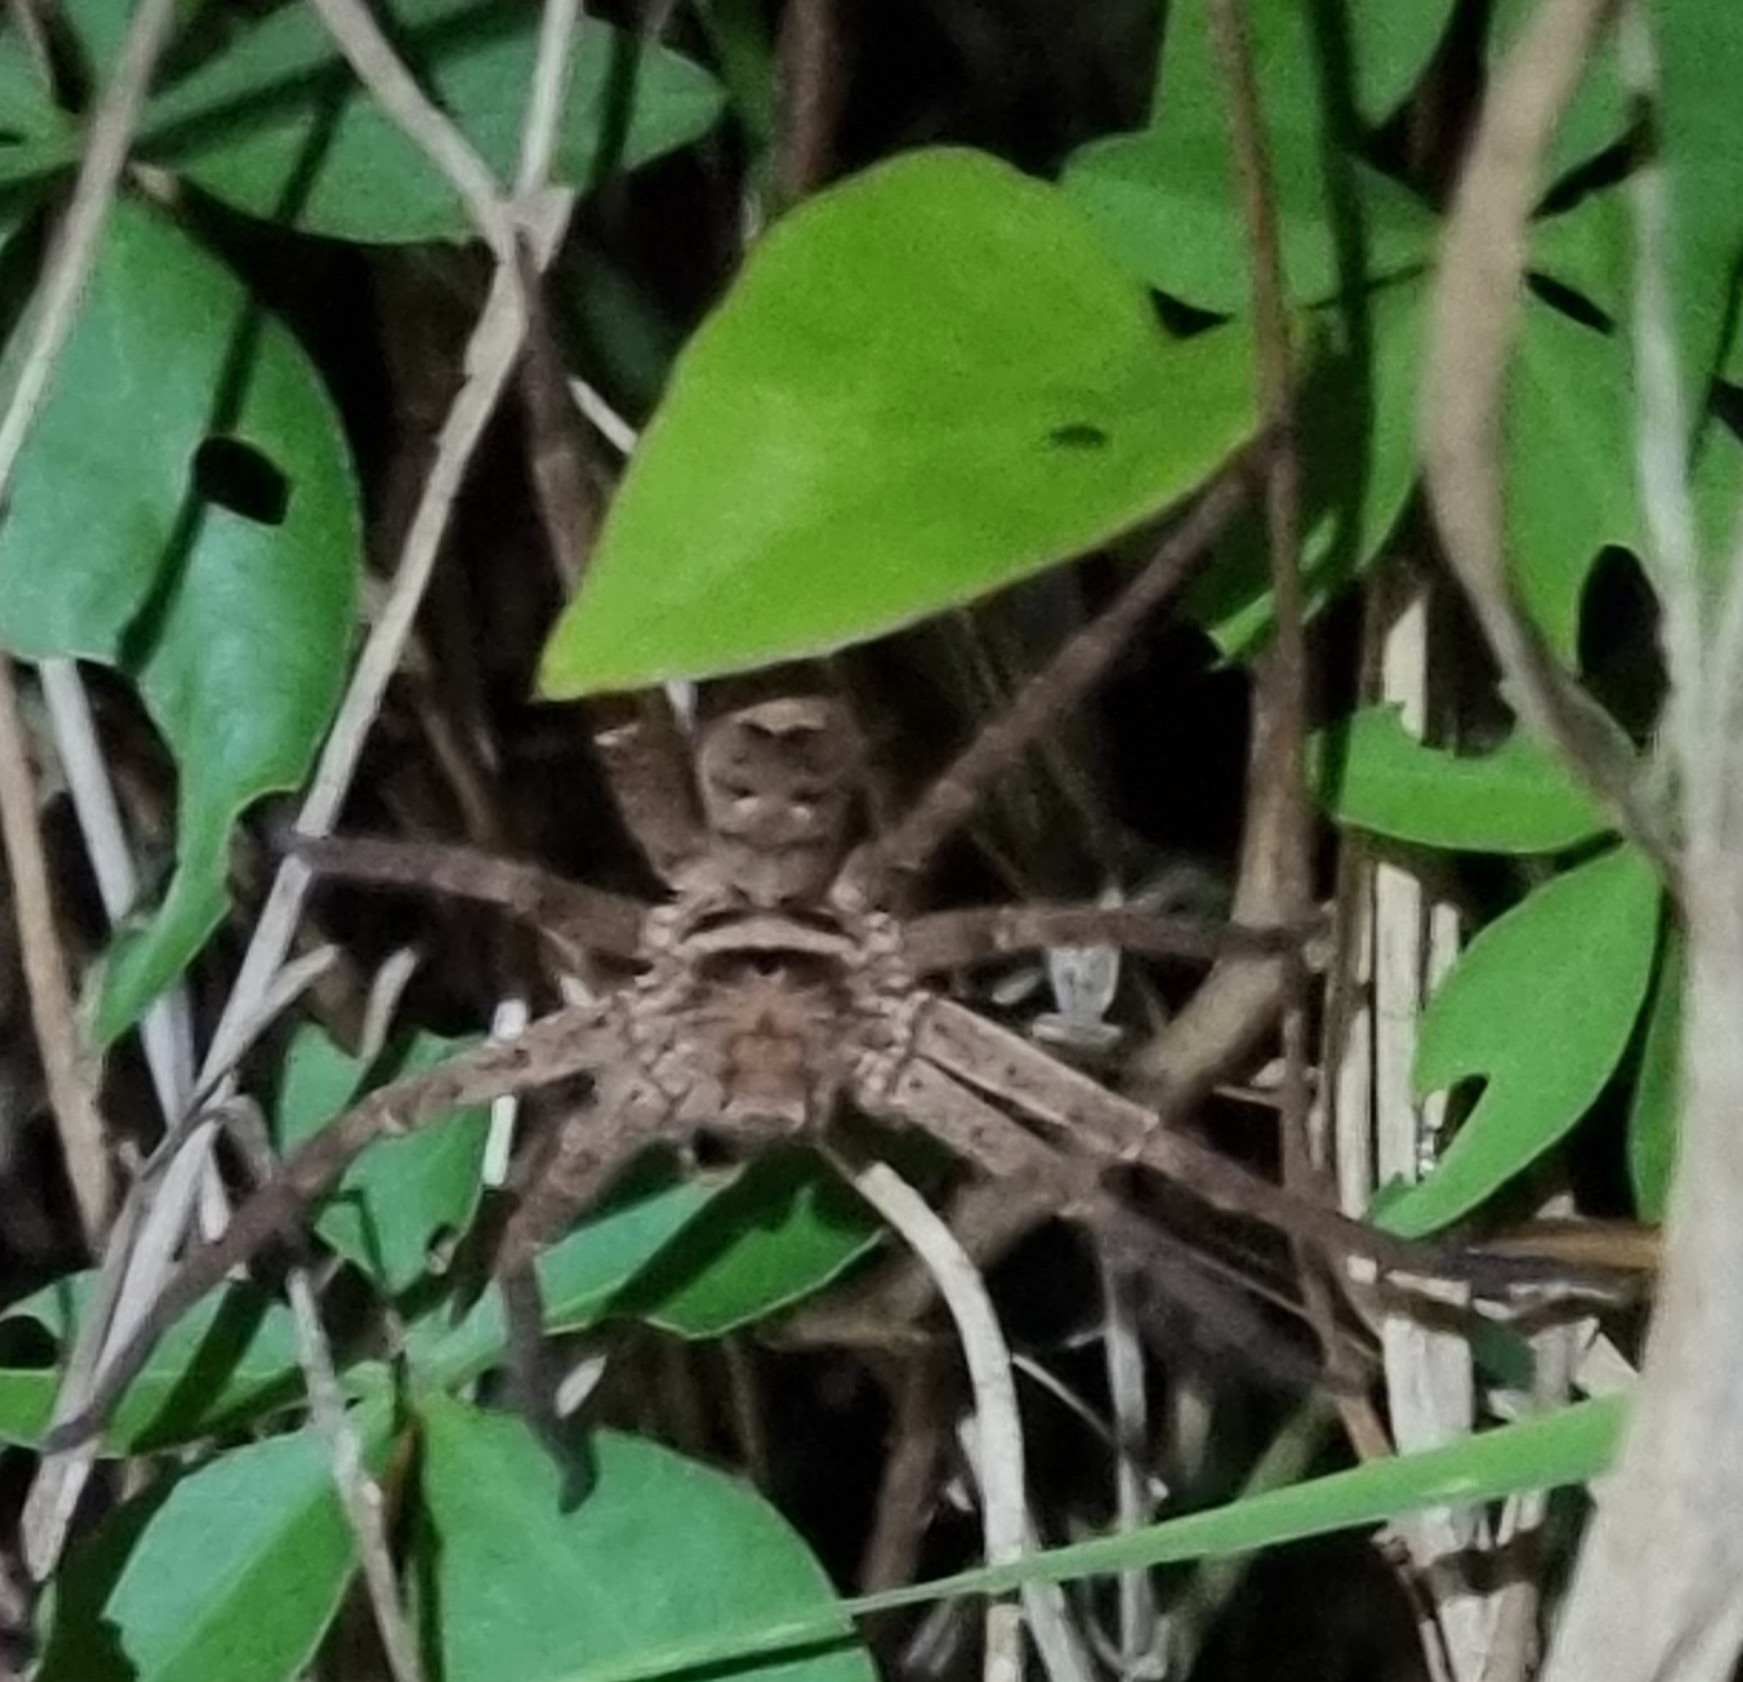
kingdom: Animalia
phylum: Arthropoda
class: Arachnida
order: Araneae
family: Sparassidae
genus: Heteropoda
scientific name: Heteropoda jugulans
